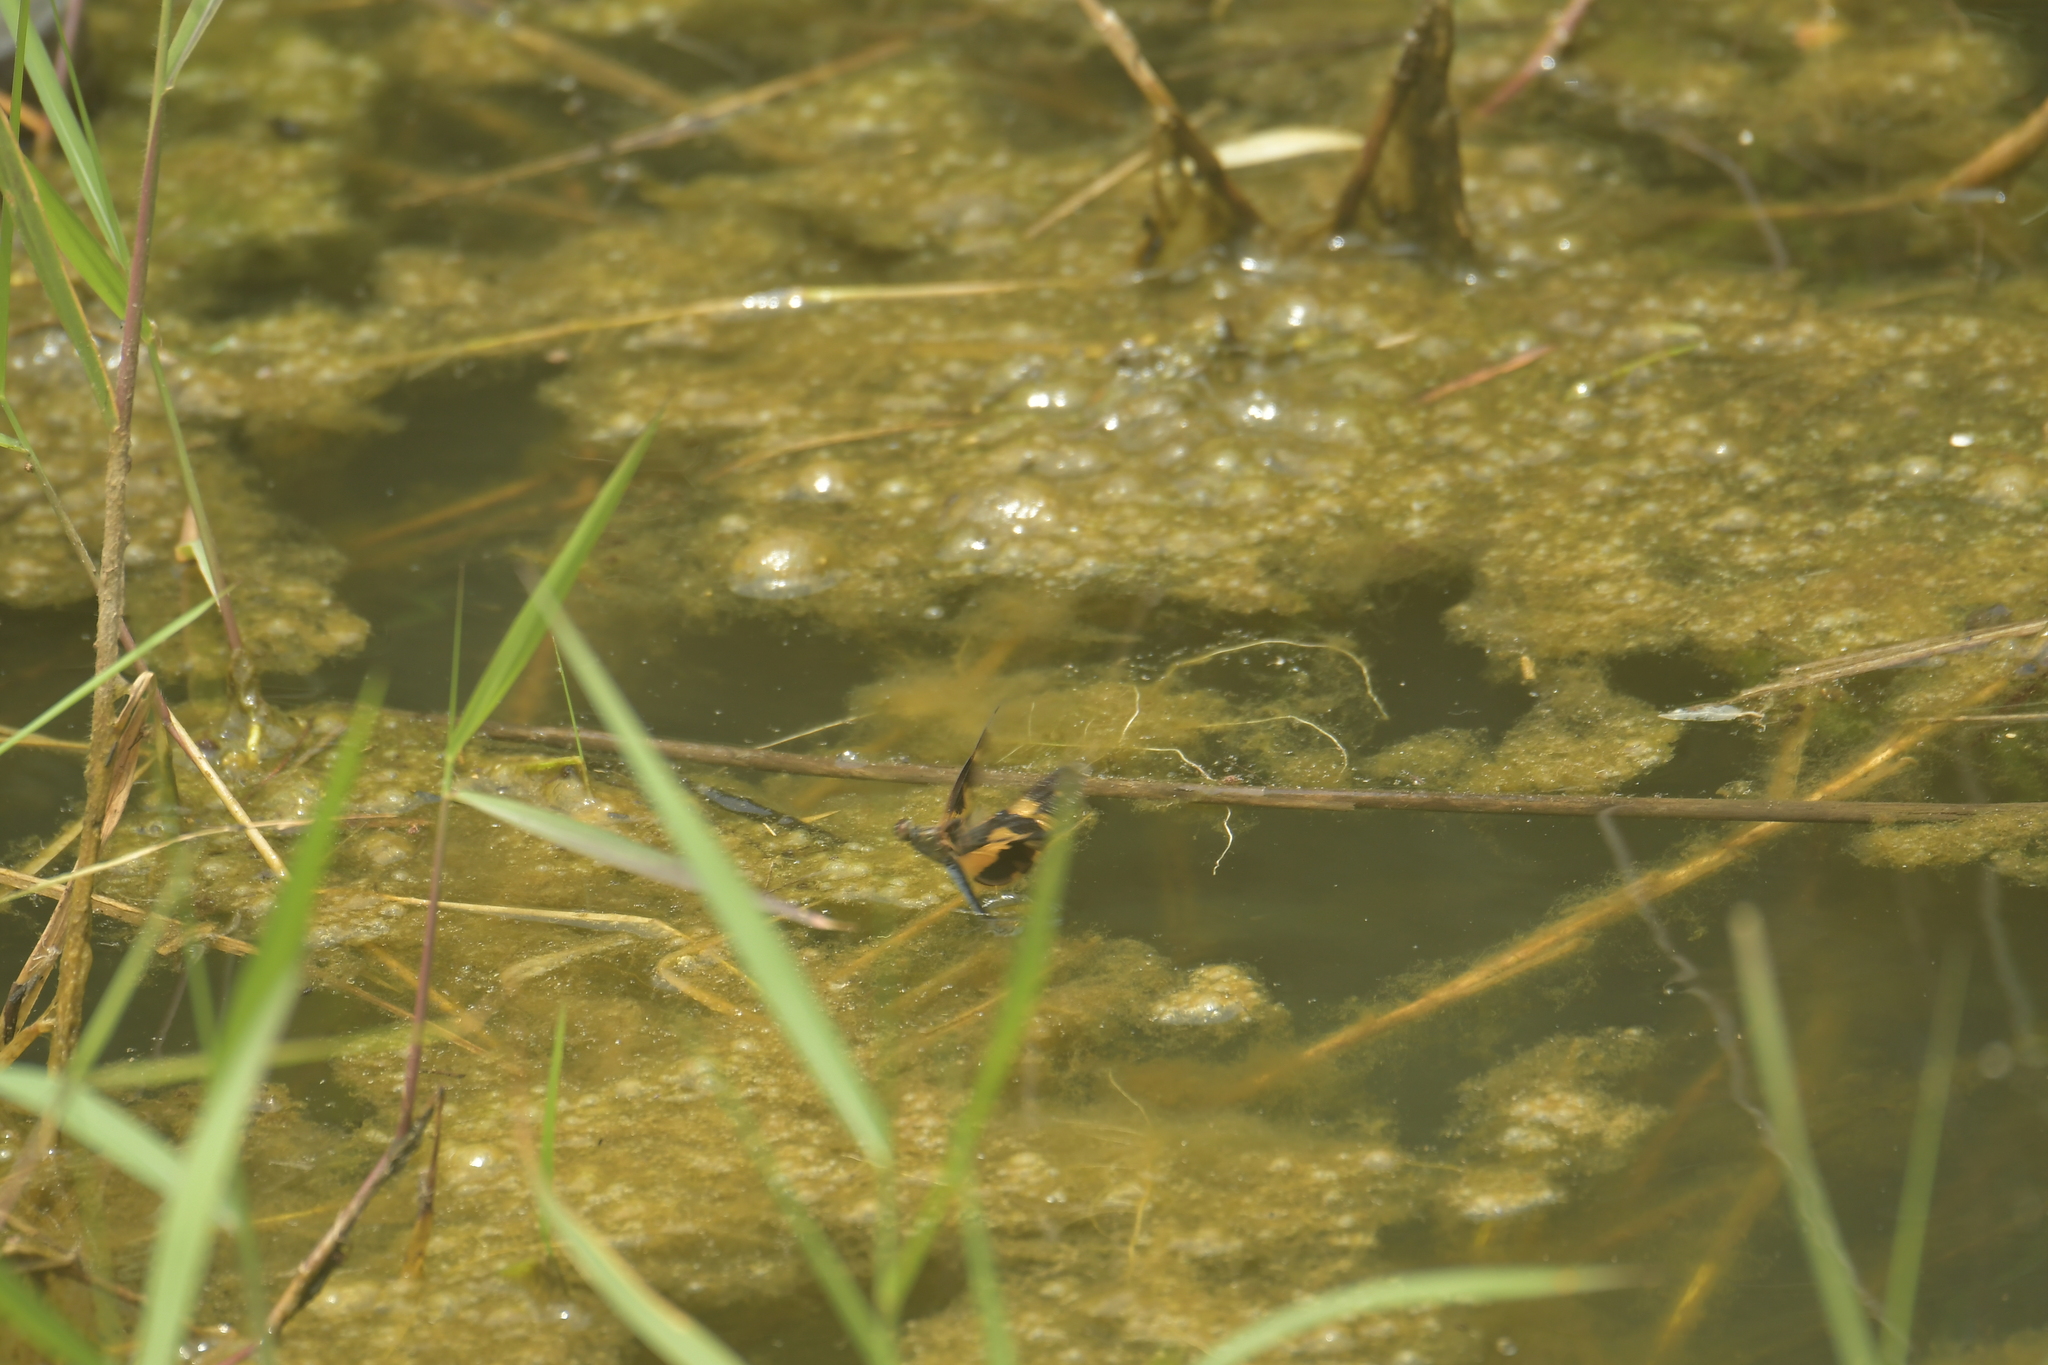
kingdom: Animalia
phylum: Arthropoda
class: Insecta
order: Odonata
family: Libellulidae
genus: Rhyothemis
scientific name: Rhyothemis variegata
